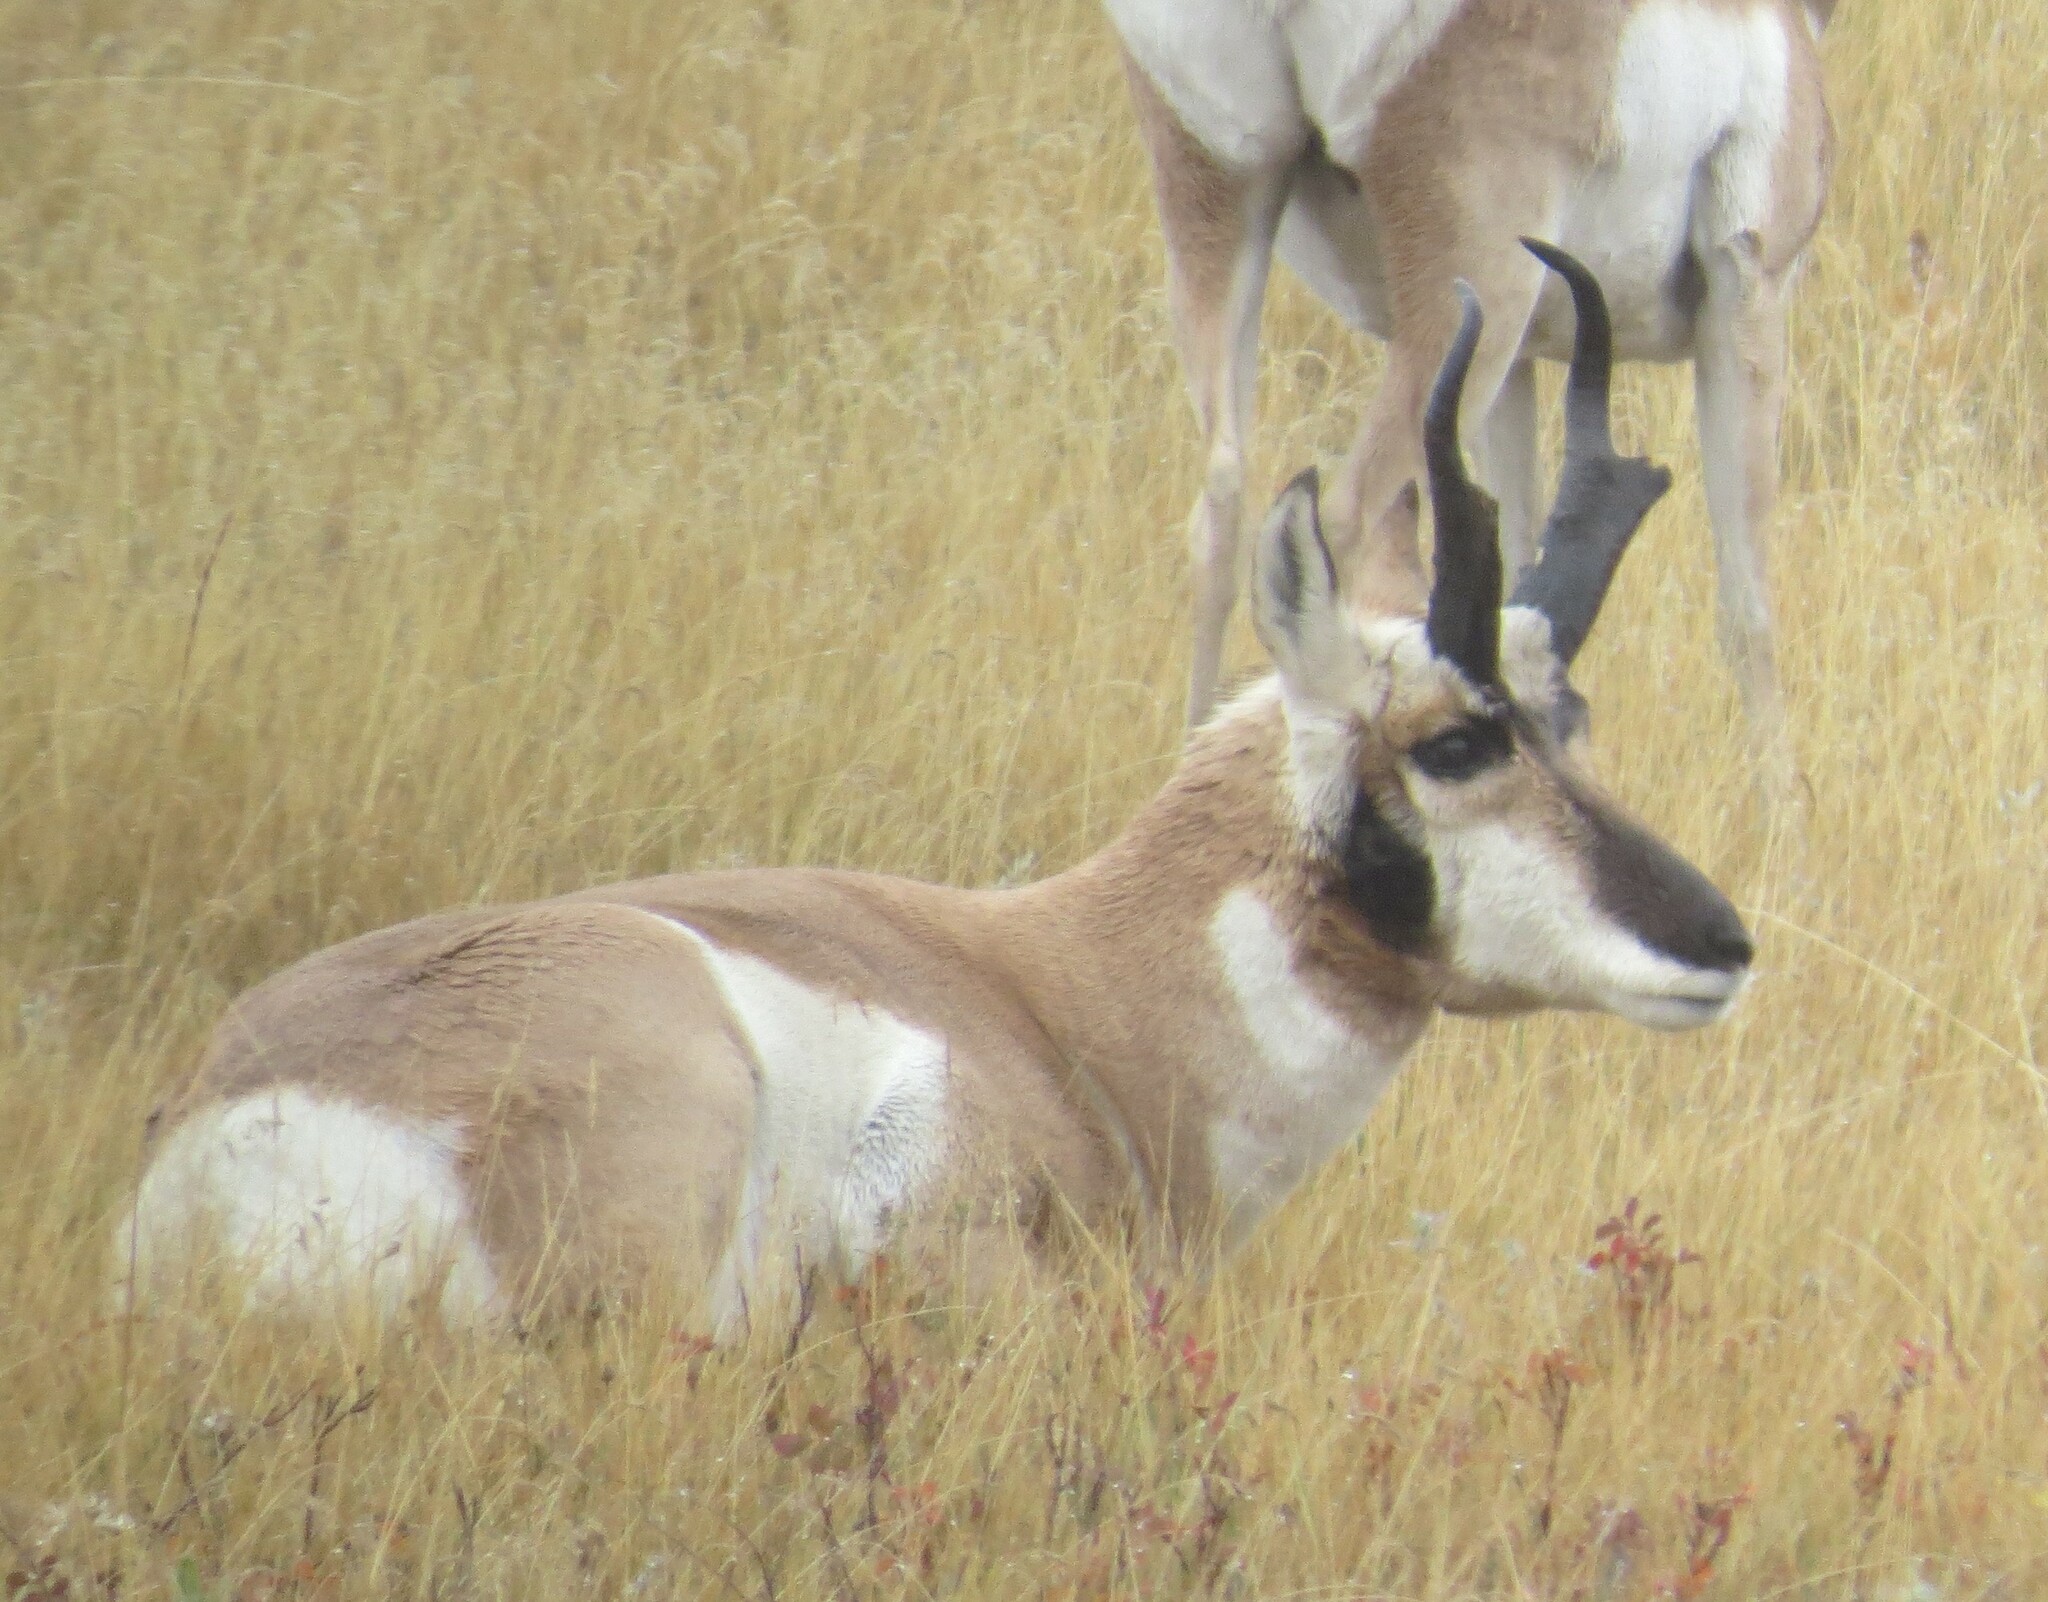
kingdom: Animalia
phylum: Chordata
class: Mammalia
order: Artiodactyla
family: Antilocapridae
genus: Antilocapra
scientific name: Antilocapra americana
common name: Pronghorn
